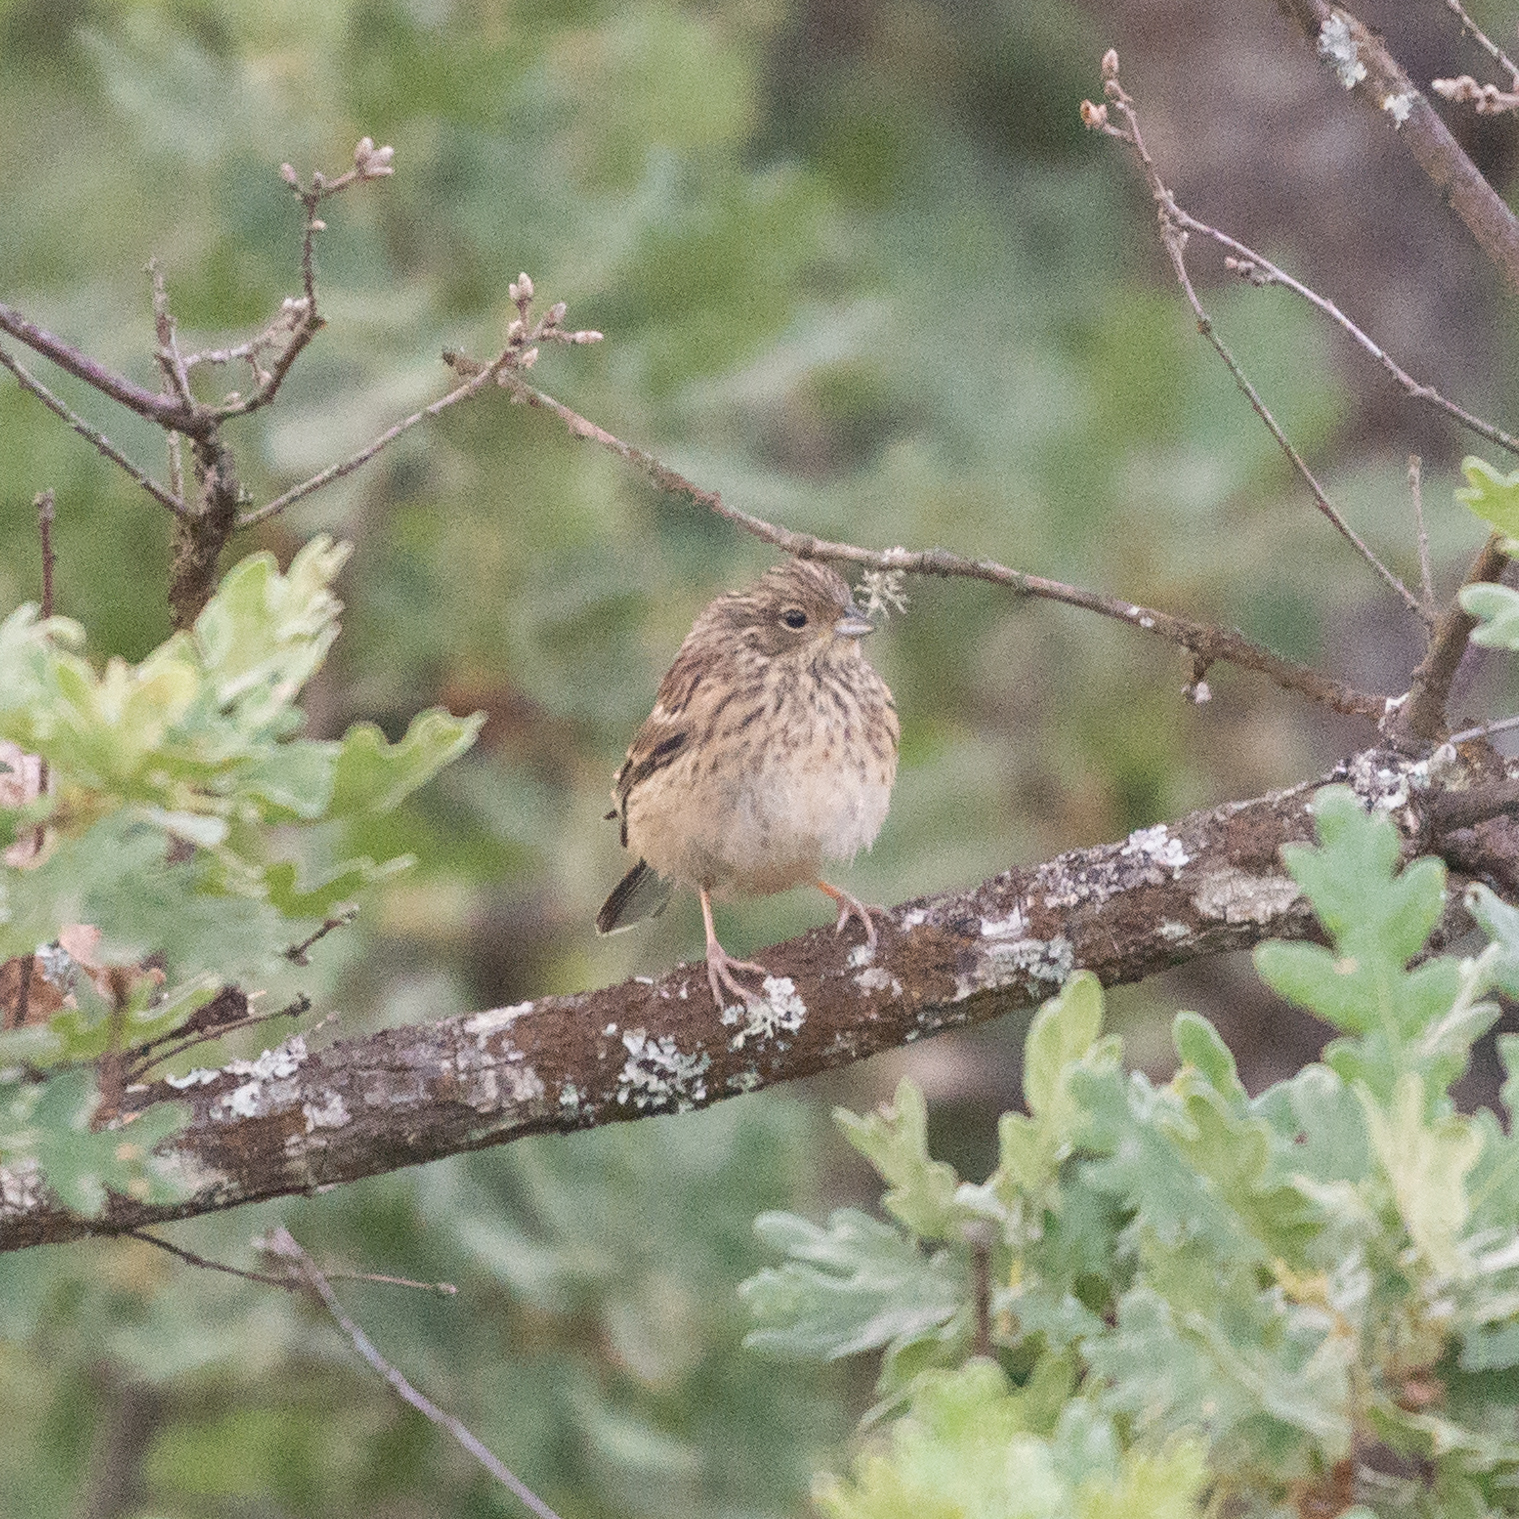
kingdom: Animalia
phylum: Chordata
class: Aves
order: Passeriformes
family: Emberizidae
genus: Emberiza
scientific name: Emberiza cia
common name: Rock bunting
